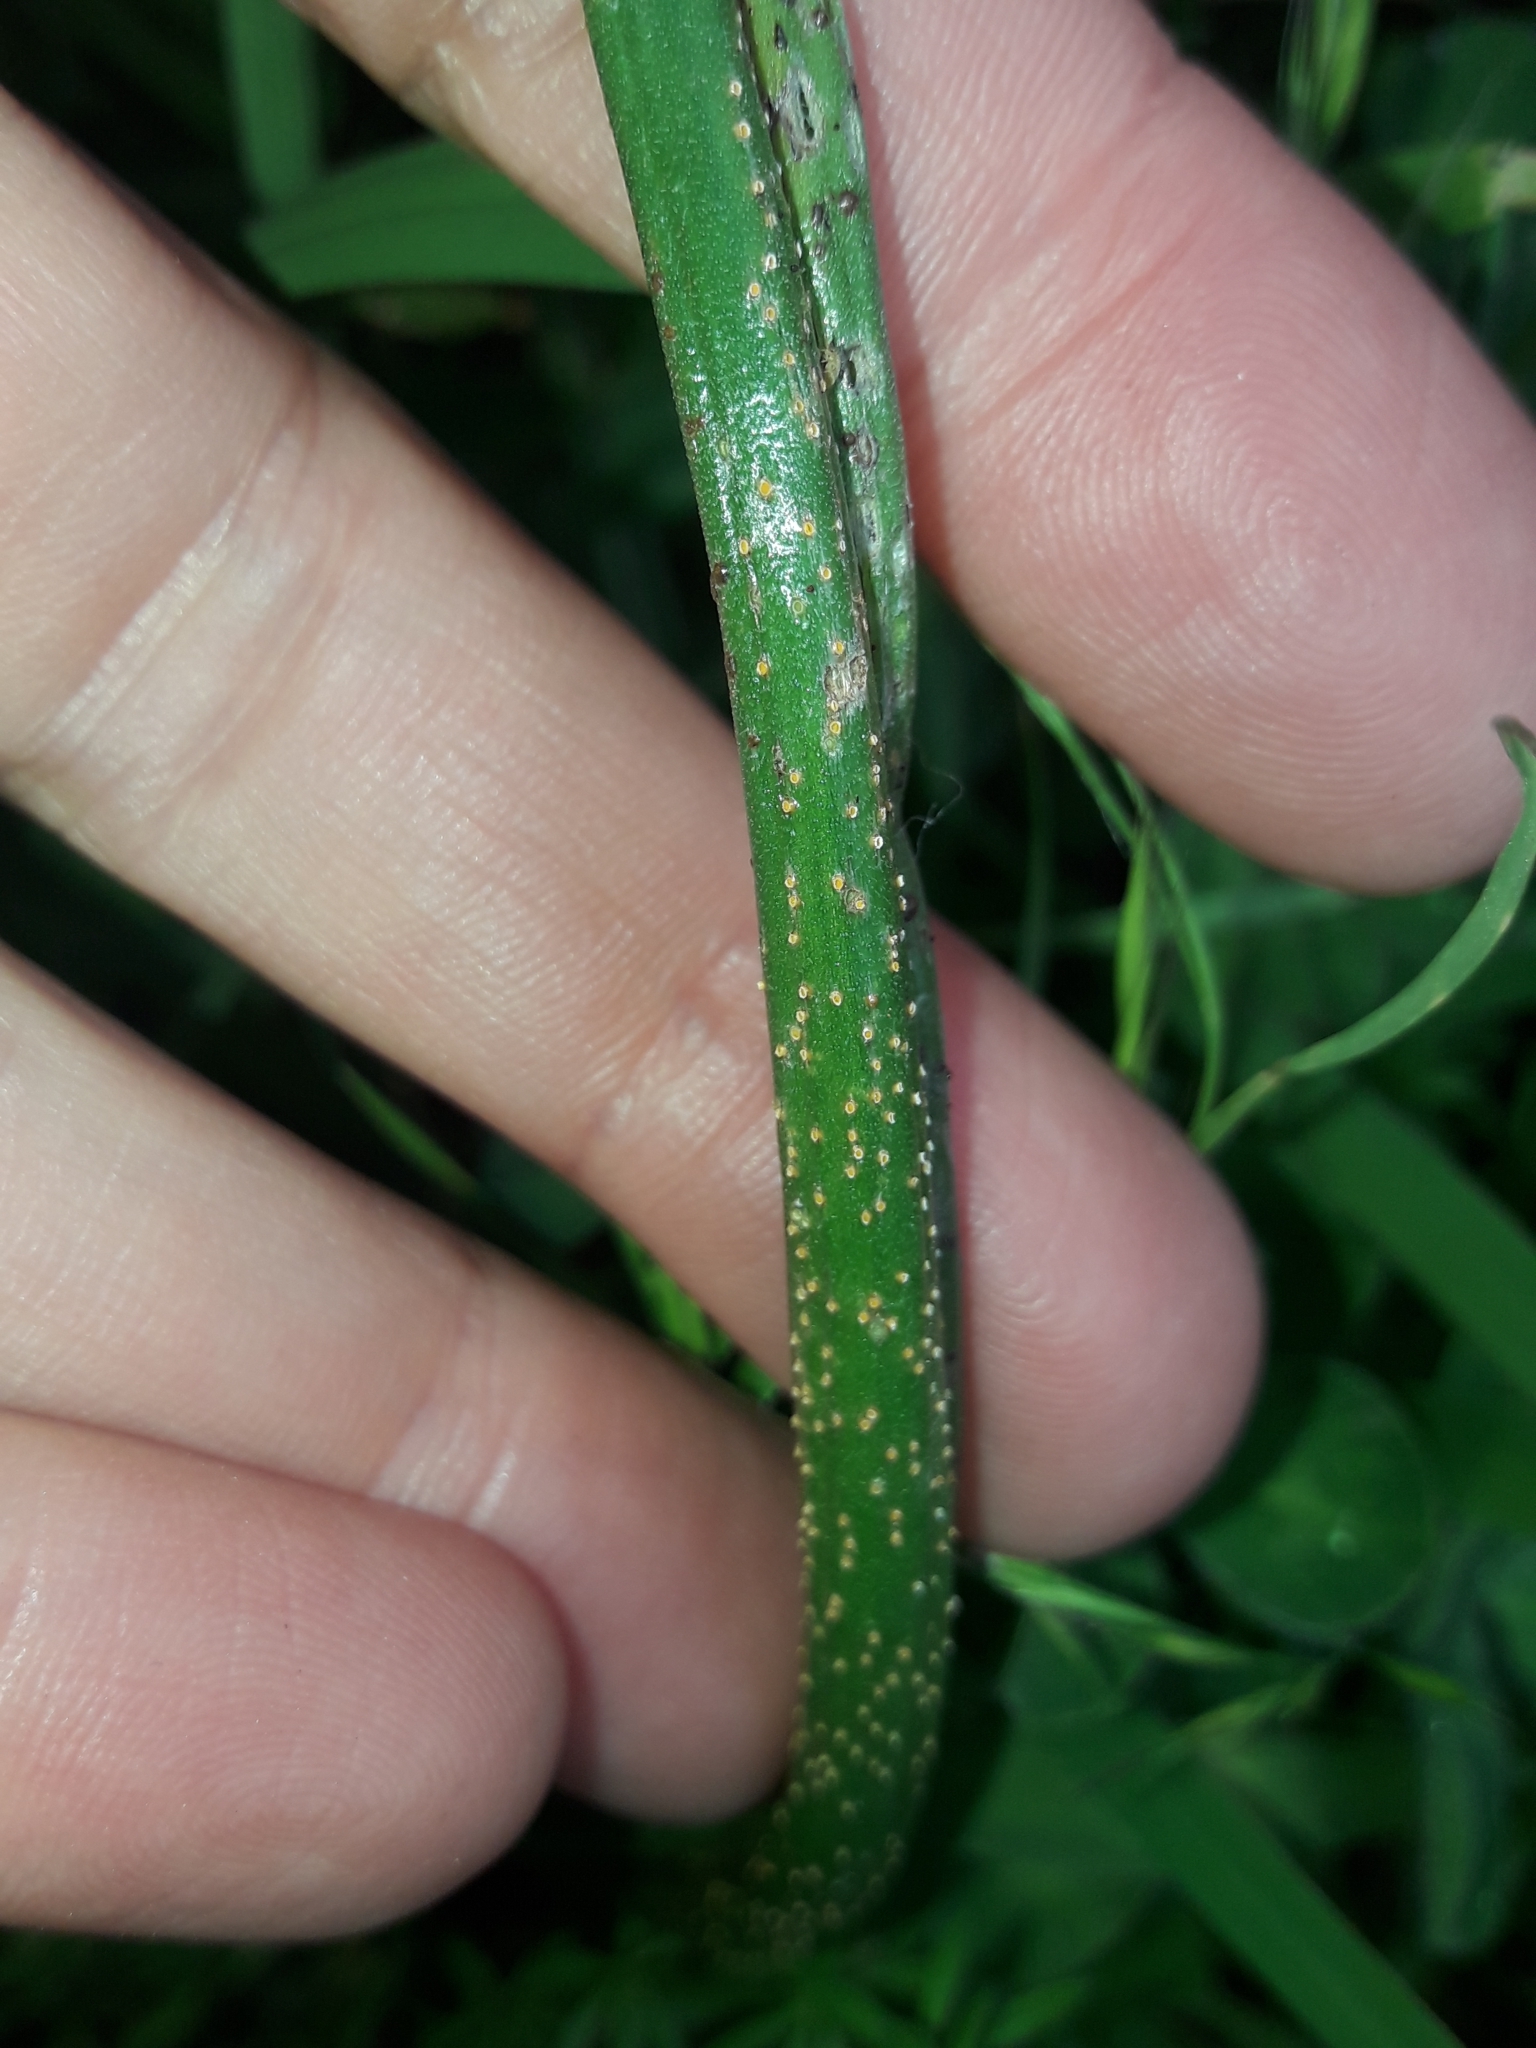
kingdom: Fungi
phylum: Basidiomycota
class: Pucciniomycetes
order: Pucciniales
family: Pucciniaceae
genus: Uromyces
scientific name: Uromyces microtidis
